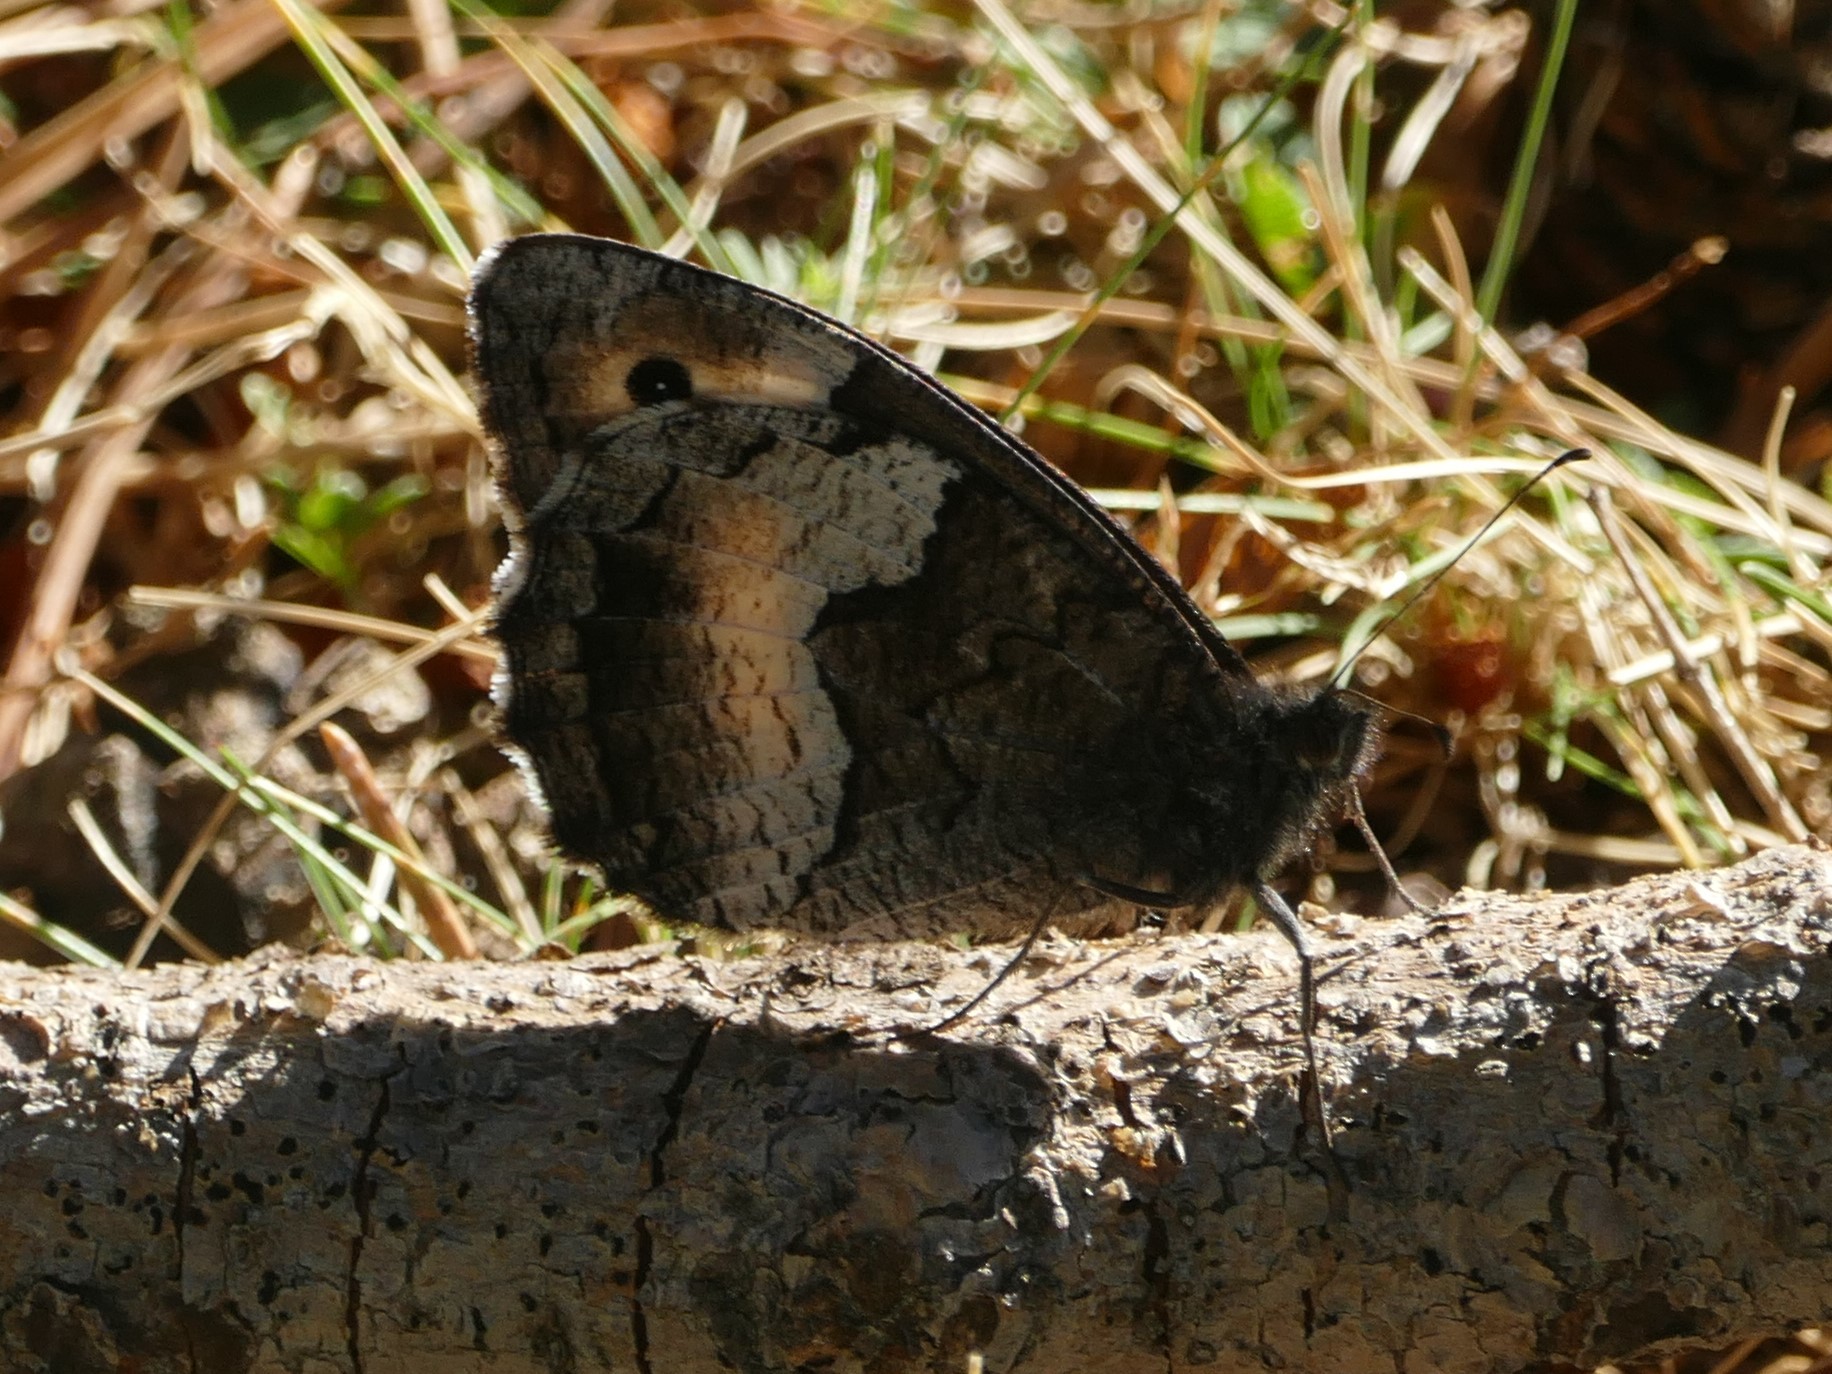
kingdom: Animalia
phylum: Arthropoda
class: Insecta
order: Lepidoptera
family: Nymphalidae
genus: Hipparchia
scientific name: Hipparchia hermione
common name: Rock grayling
